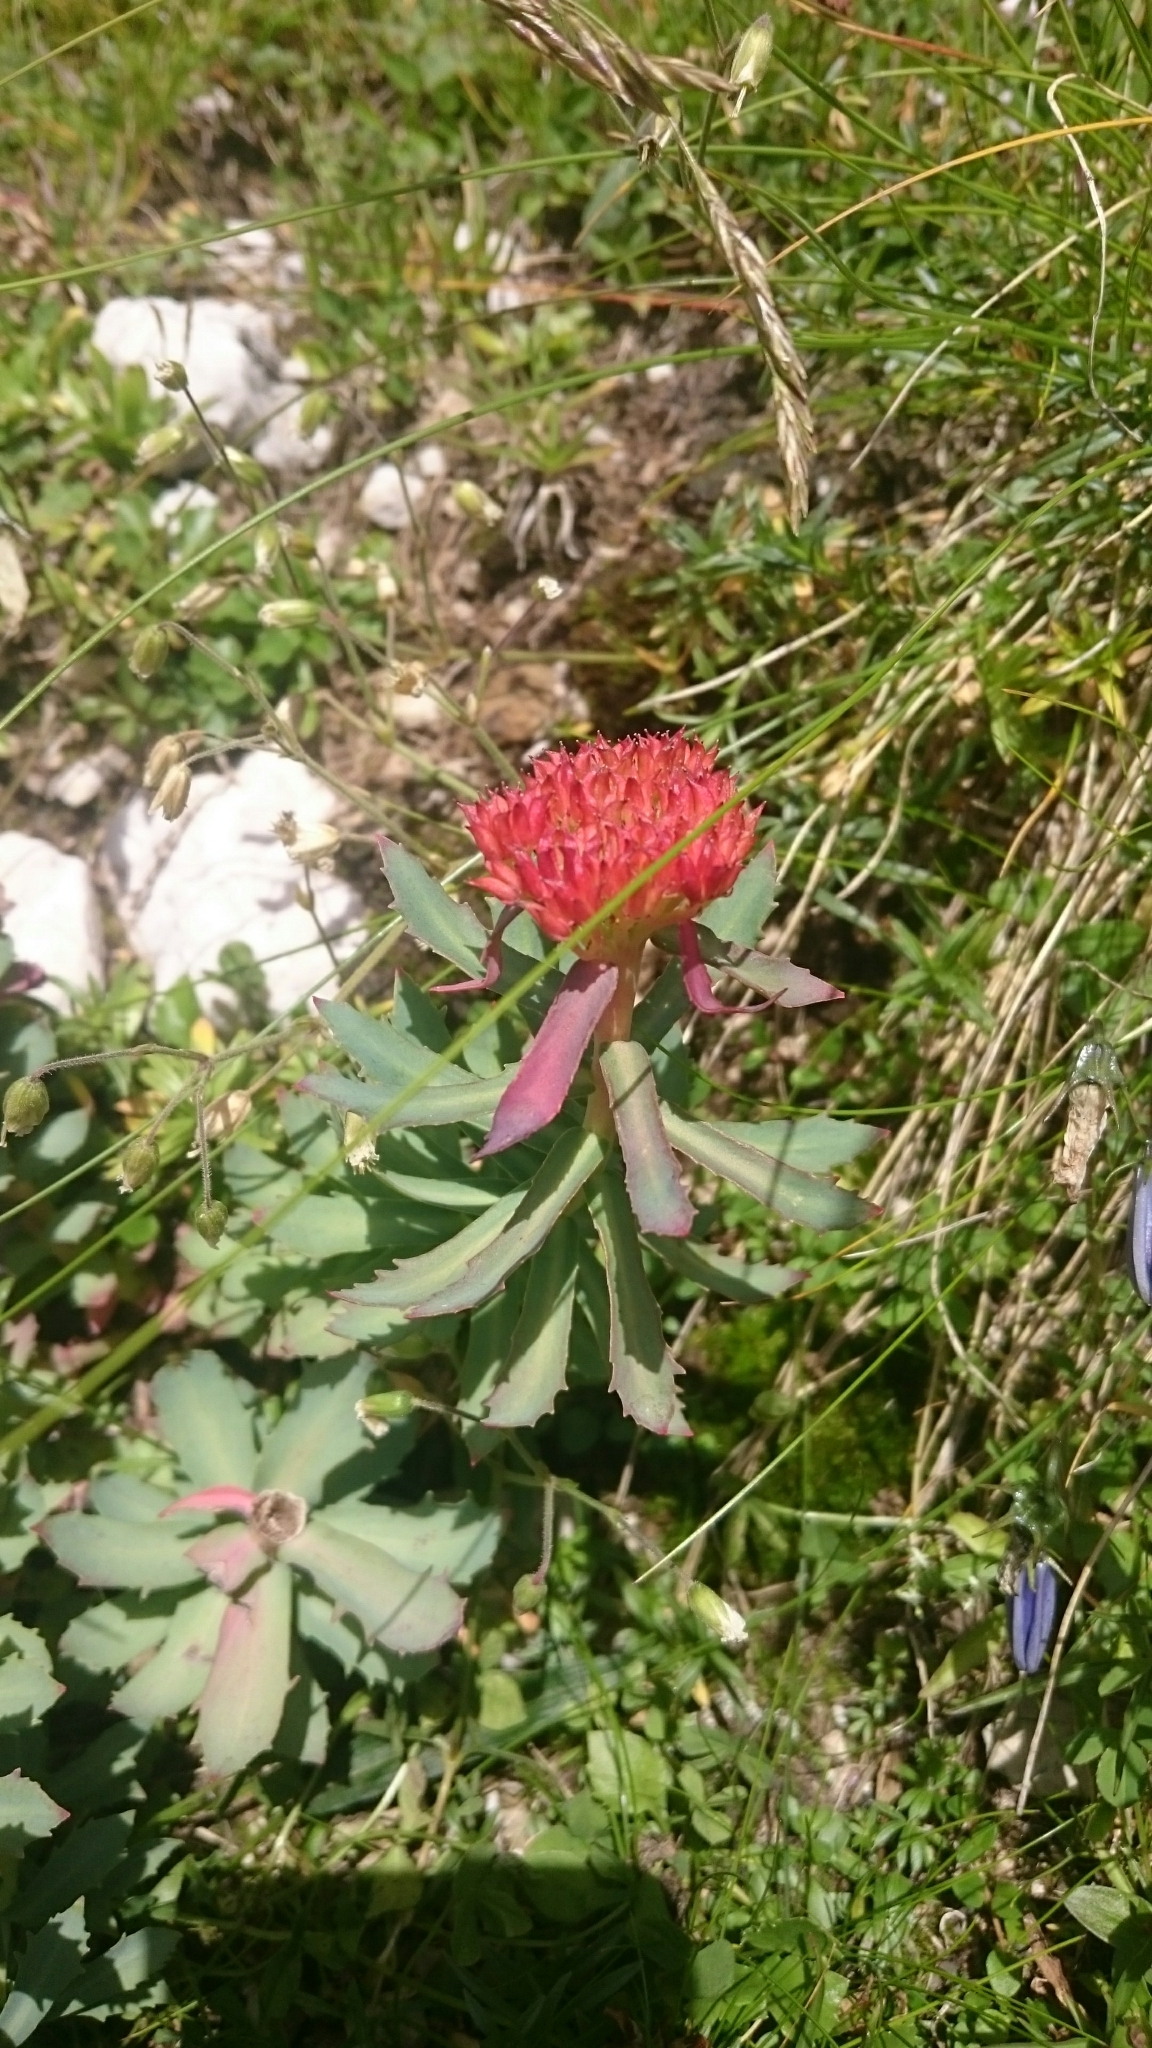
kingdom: Plantae
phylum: Tracheophyta
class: Magnoliopsida
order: Saxifragales
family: Crassulaceae
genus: Rhodiola
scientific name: Rhodiola rosea
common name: Roseroot
